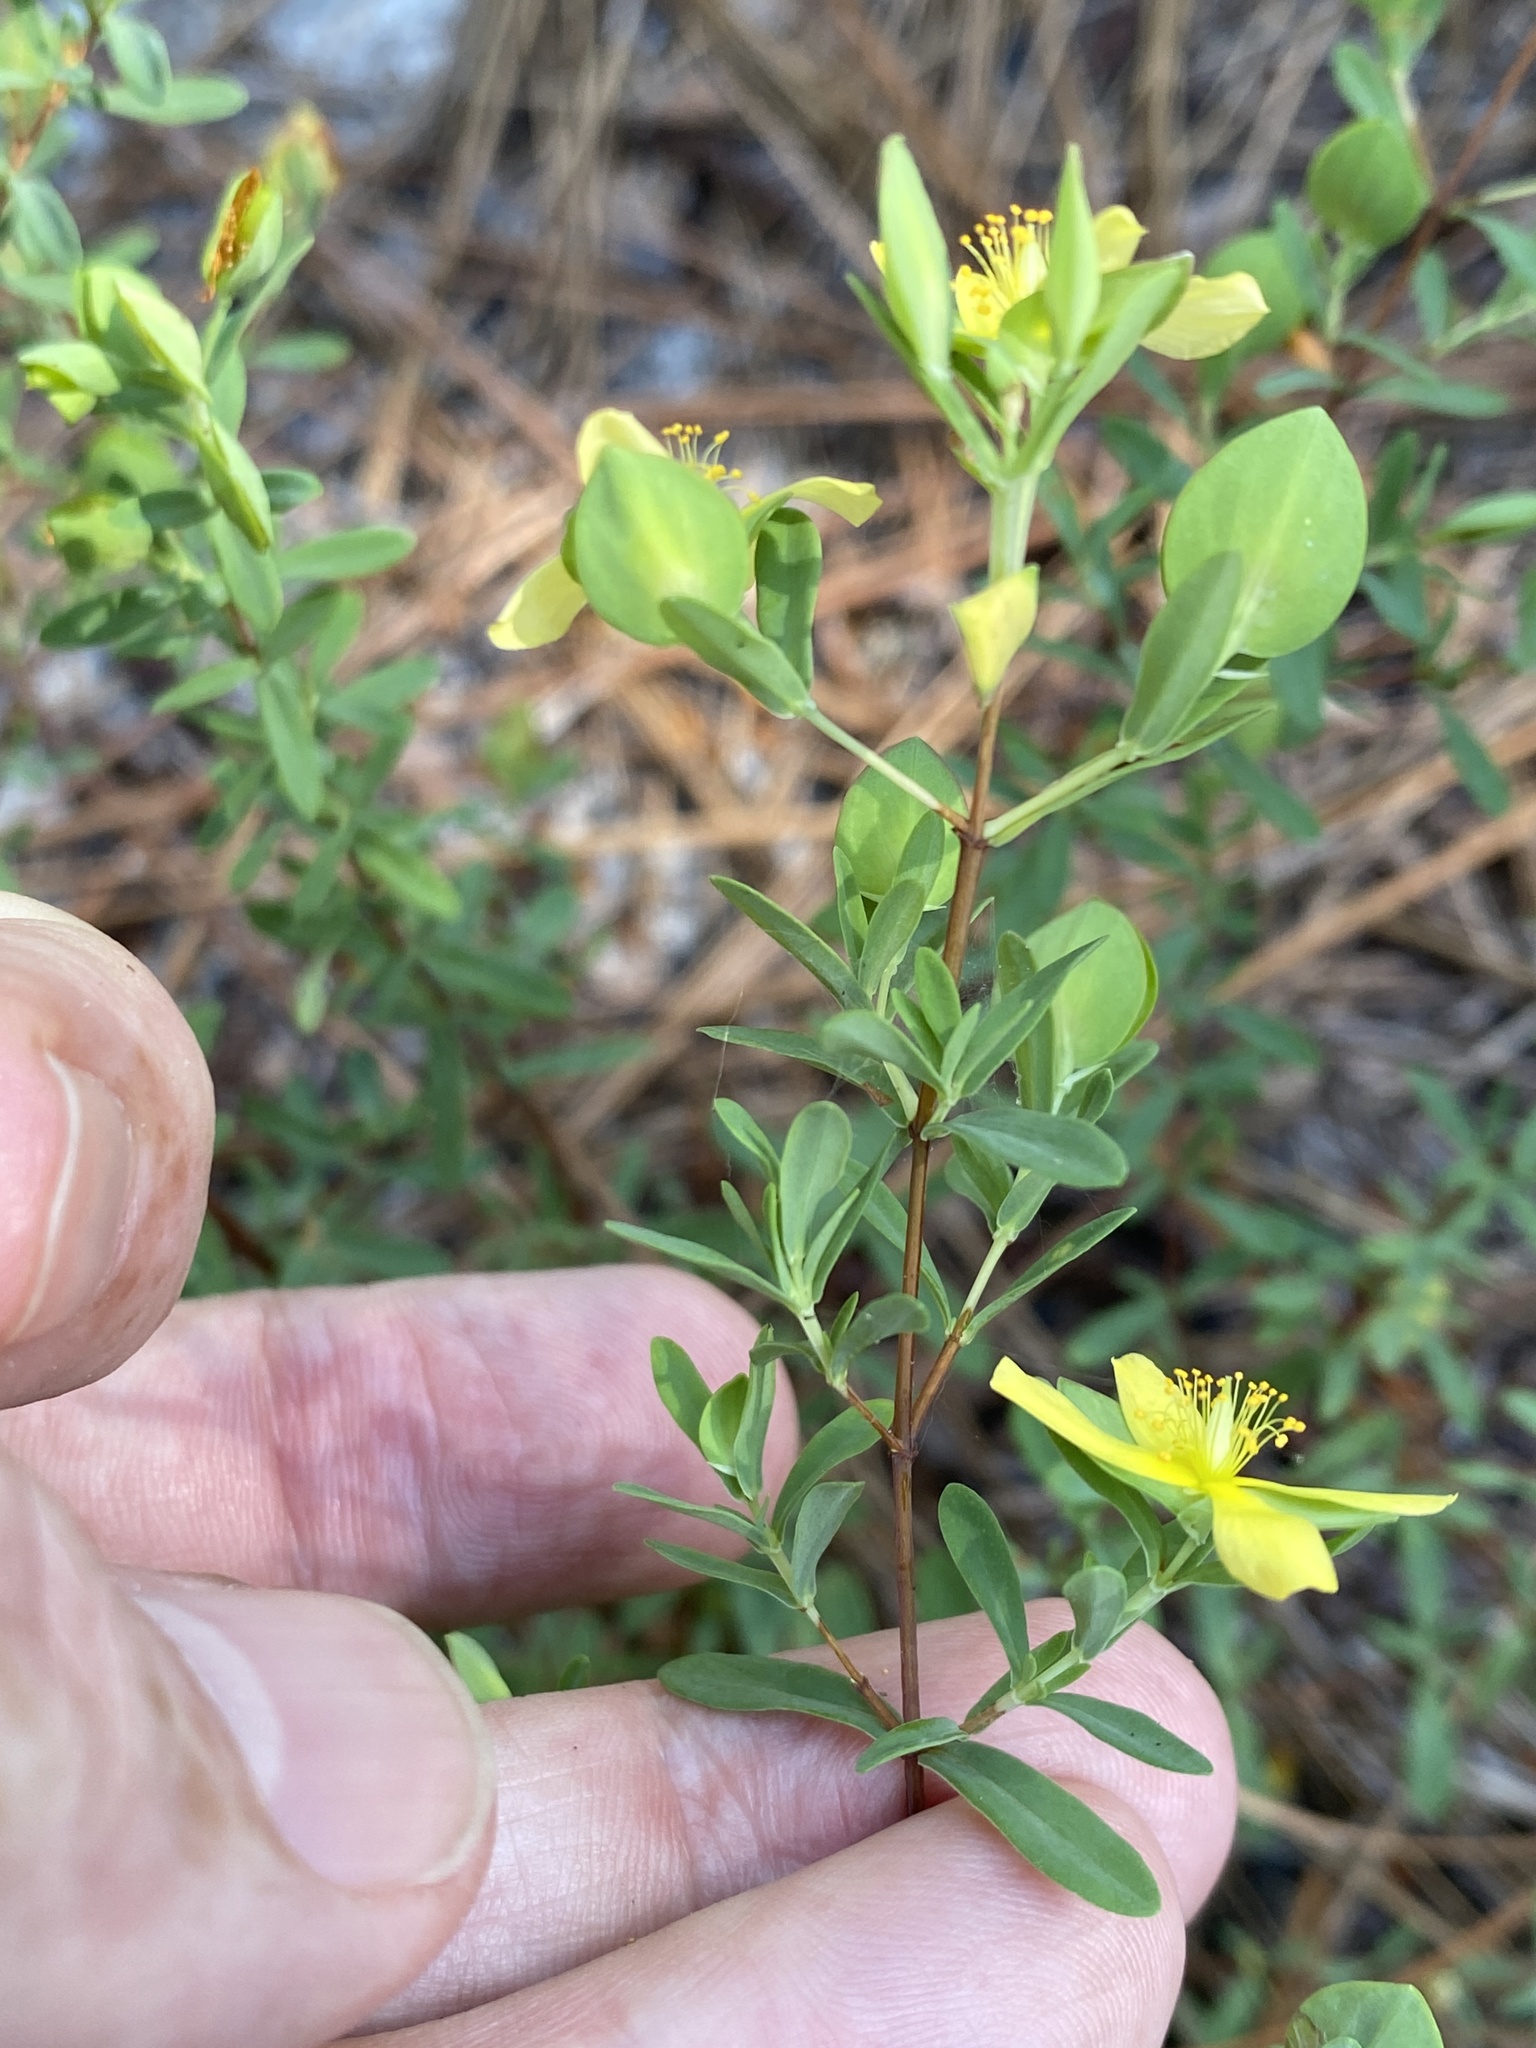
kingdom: Plantae
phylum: Tracheophyta
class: Magnoliopsida
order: Malpighiales
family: Hypericaceae
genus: Hypericum
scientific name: Hypericum hypericoides
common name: St. andrew's cross
